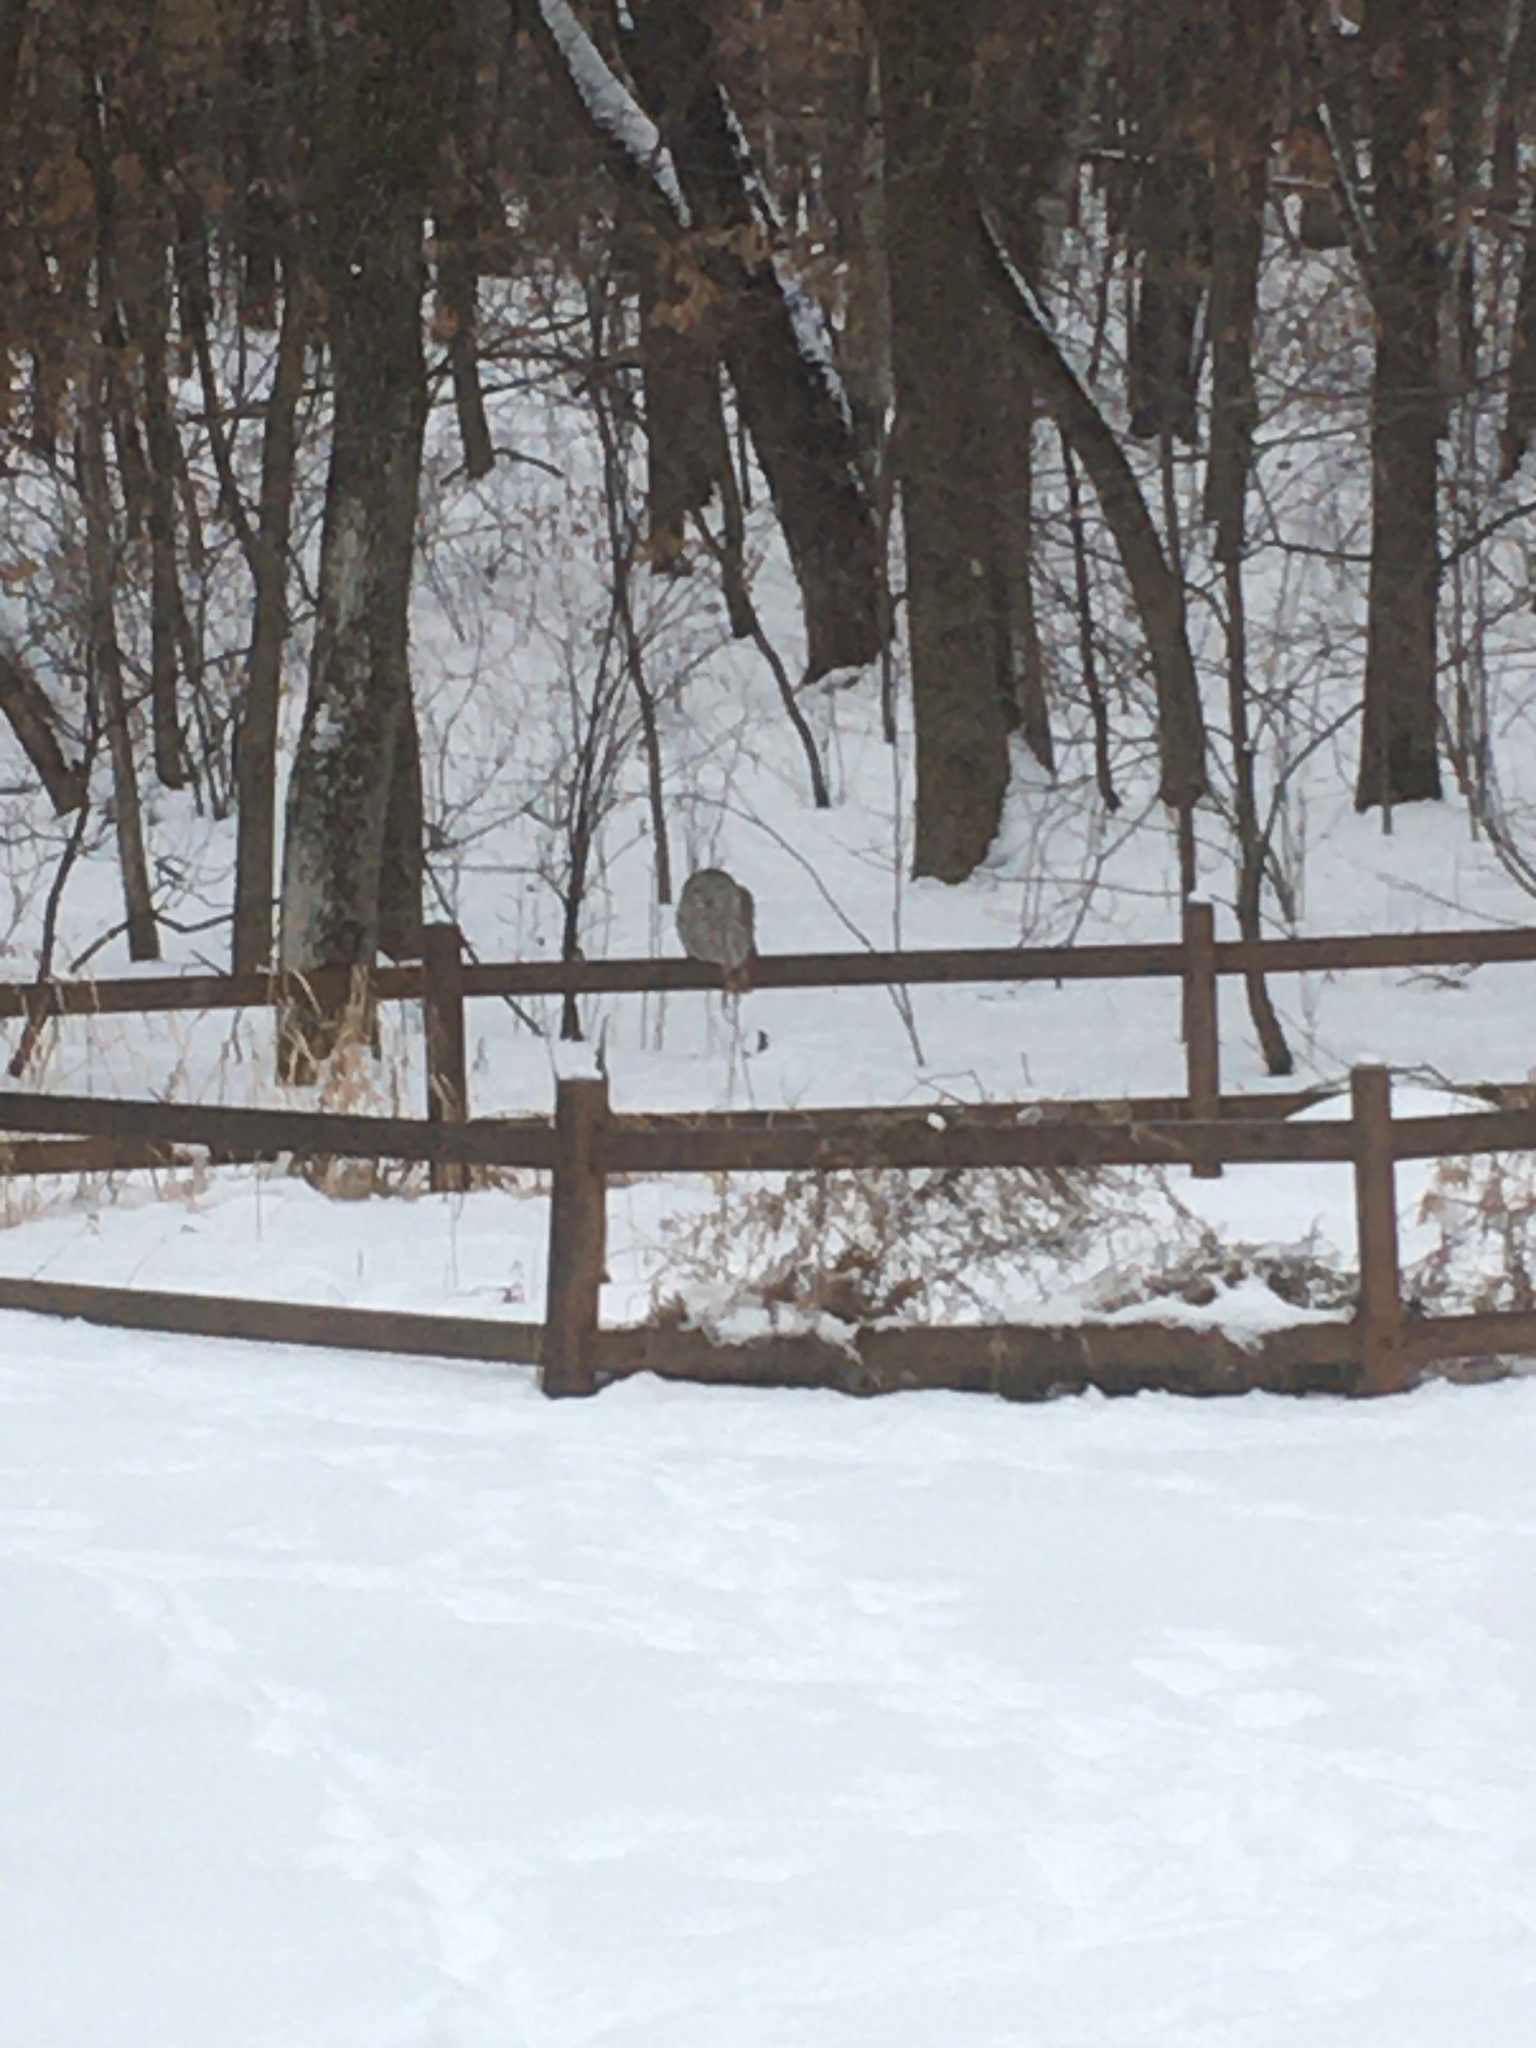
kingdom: Animalia
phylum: Chordata
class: Aves
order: Strigiformes
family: Strigidae
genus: Strix
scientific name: Strix varia
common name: Barred owl
